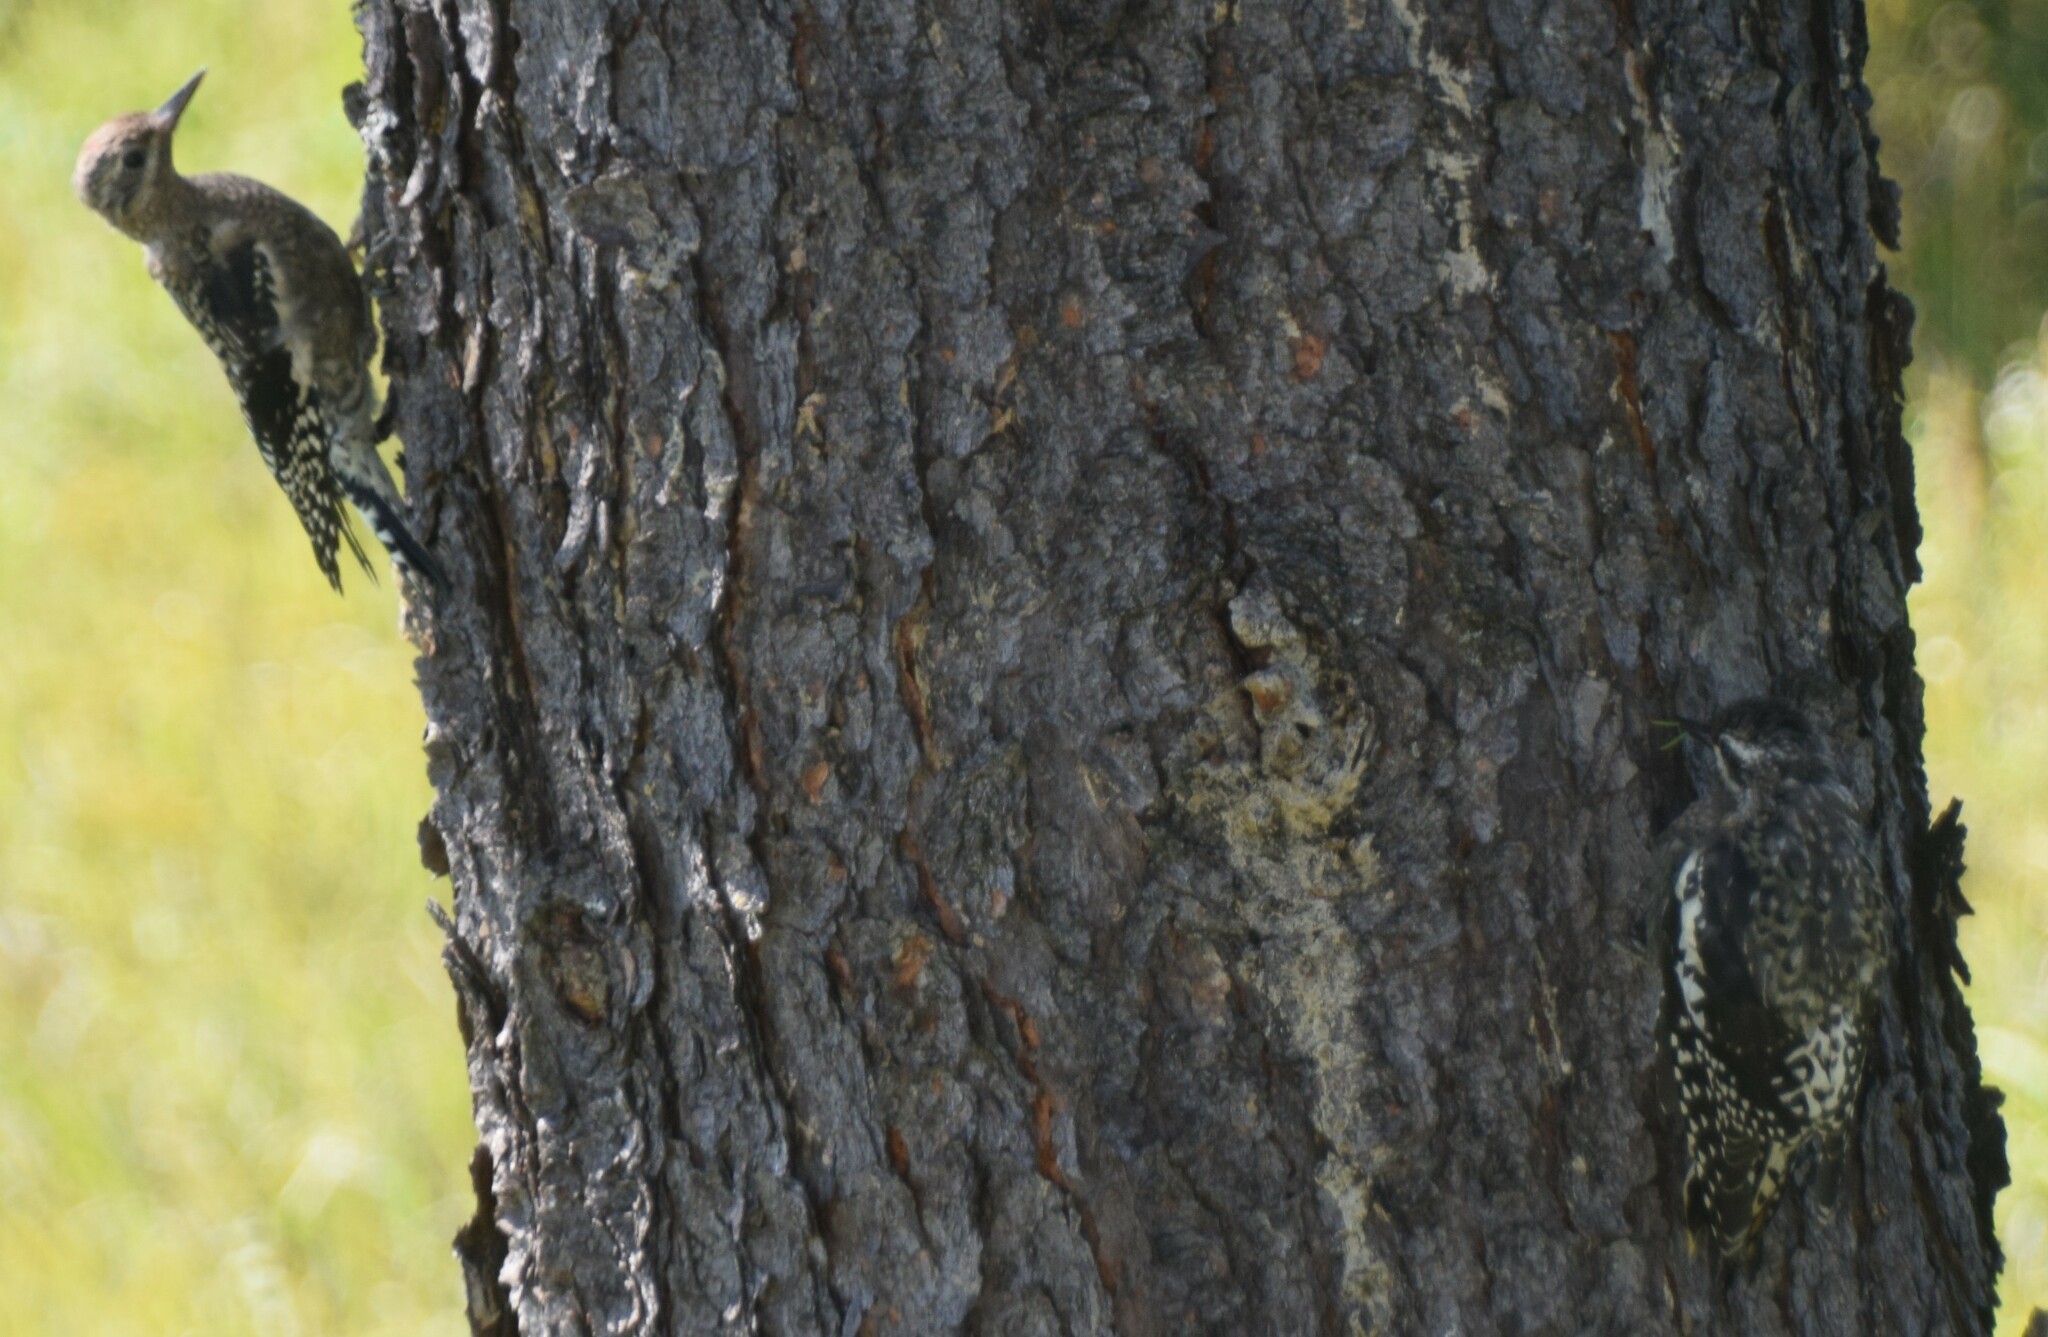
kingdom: Animalia
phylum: Chordata
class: Aves
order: Piciformes
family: Picidae
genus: Sphyrapicus
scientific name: Sphyrapicus varius
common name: Yellow-bellied sapsucker
